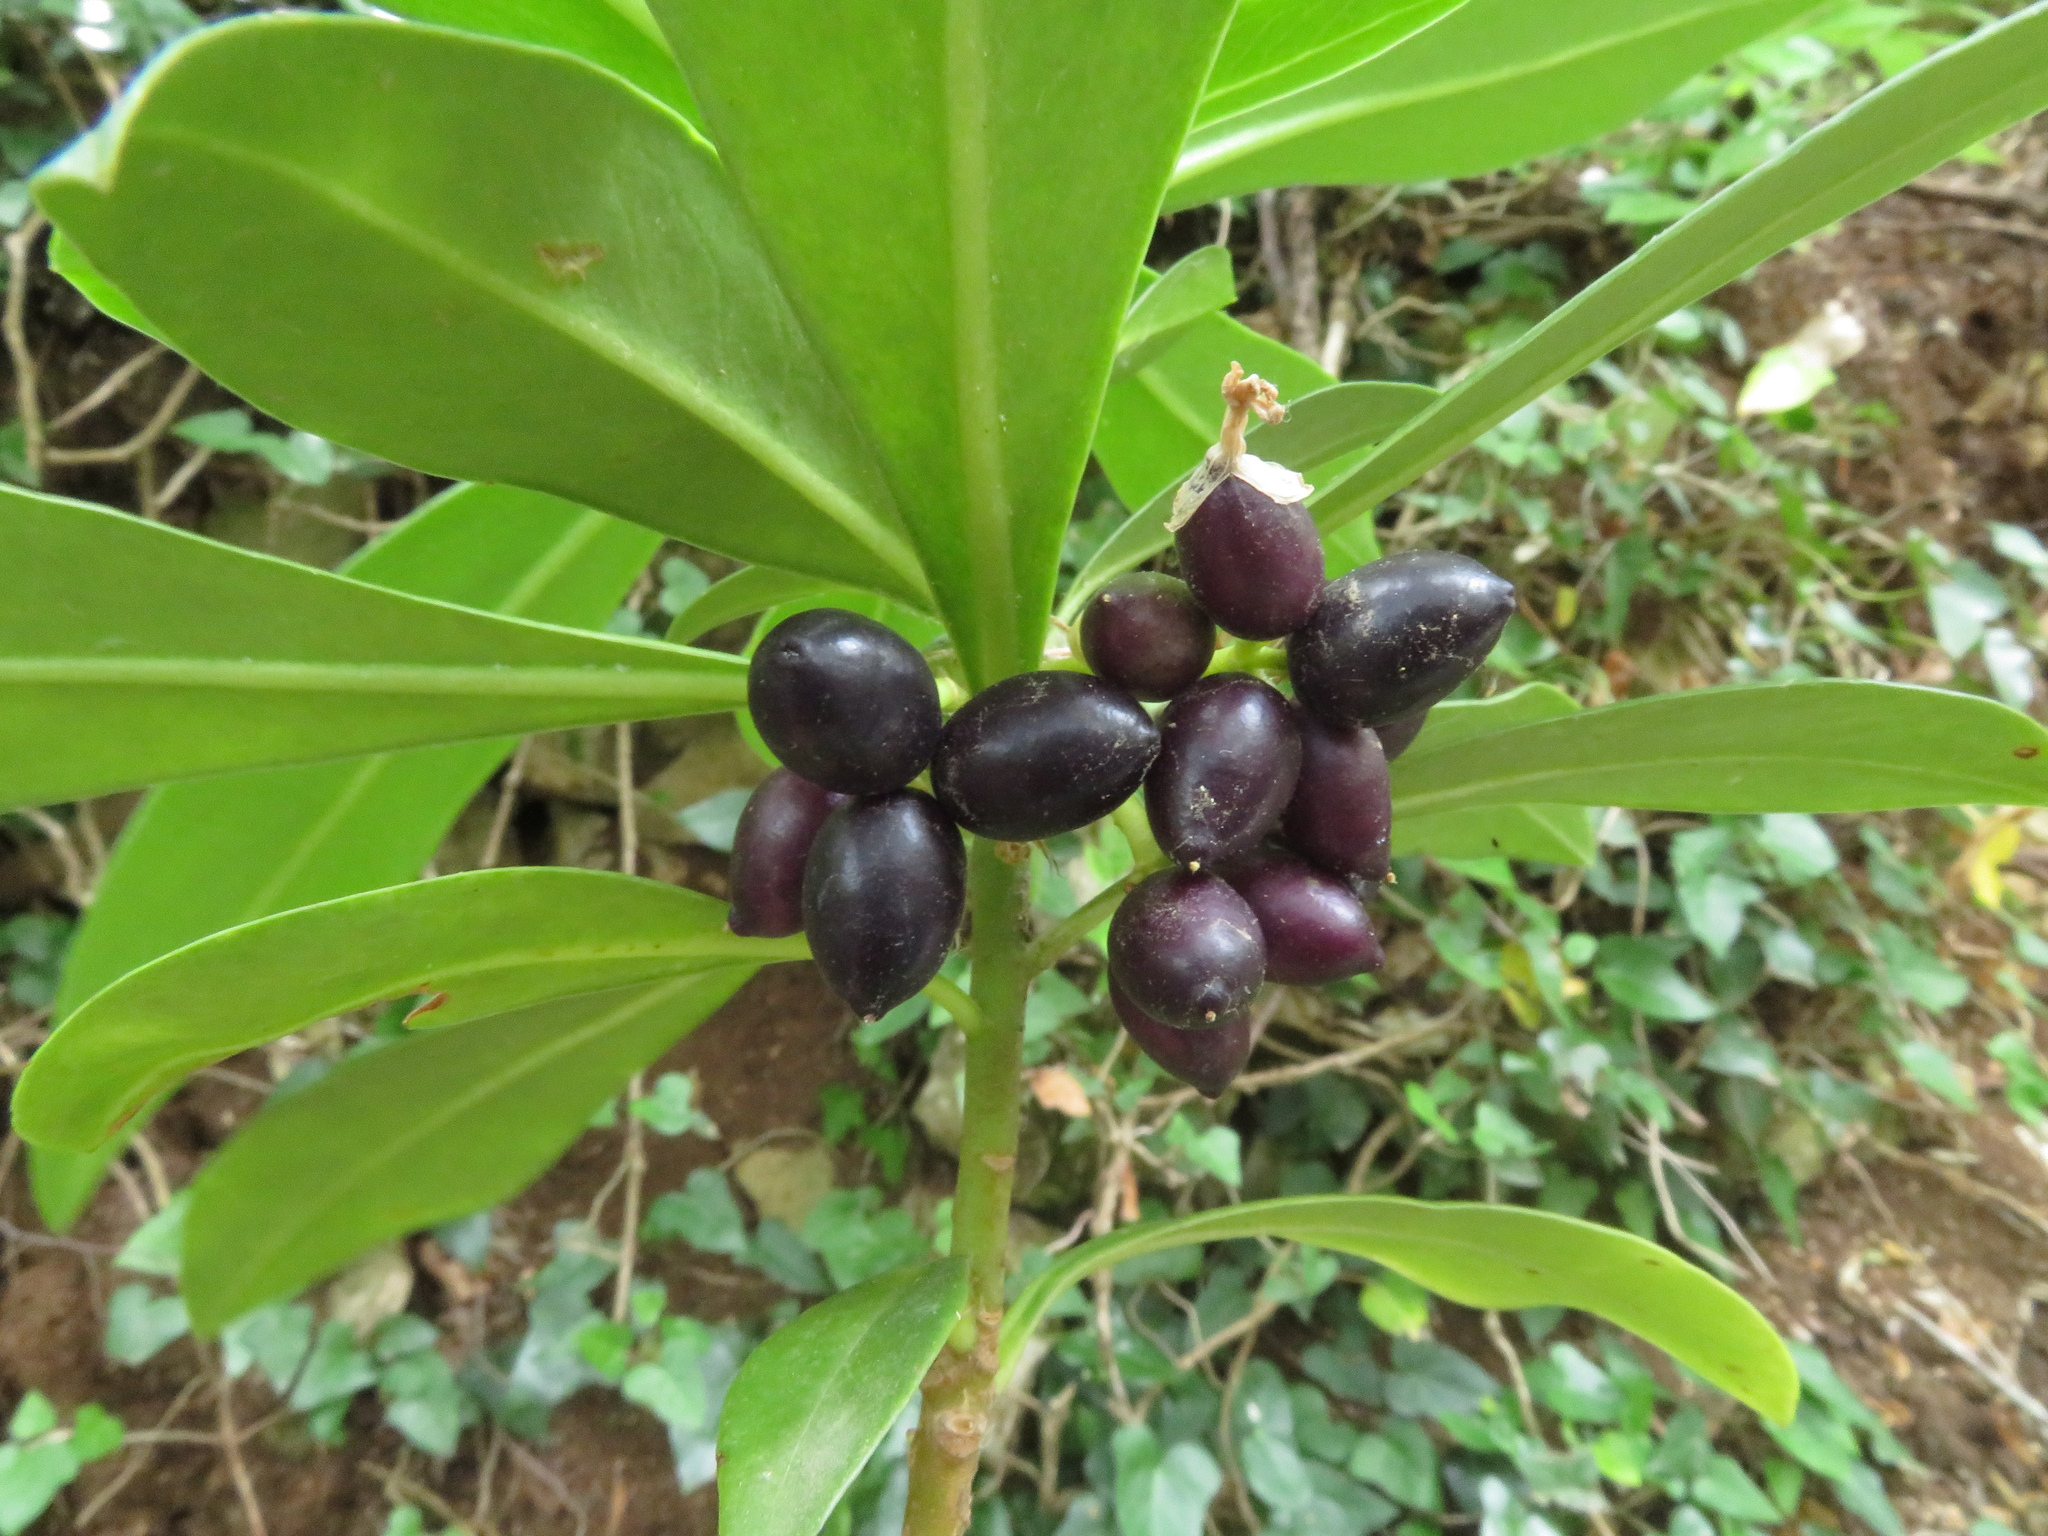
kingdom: Plantae
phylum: Tracheophyta
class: Magnoliopsida
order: Malvales
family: Thymelaeaceae
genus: Daphne
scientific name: Daphne laureola
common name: Spurge-laurel
